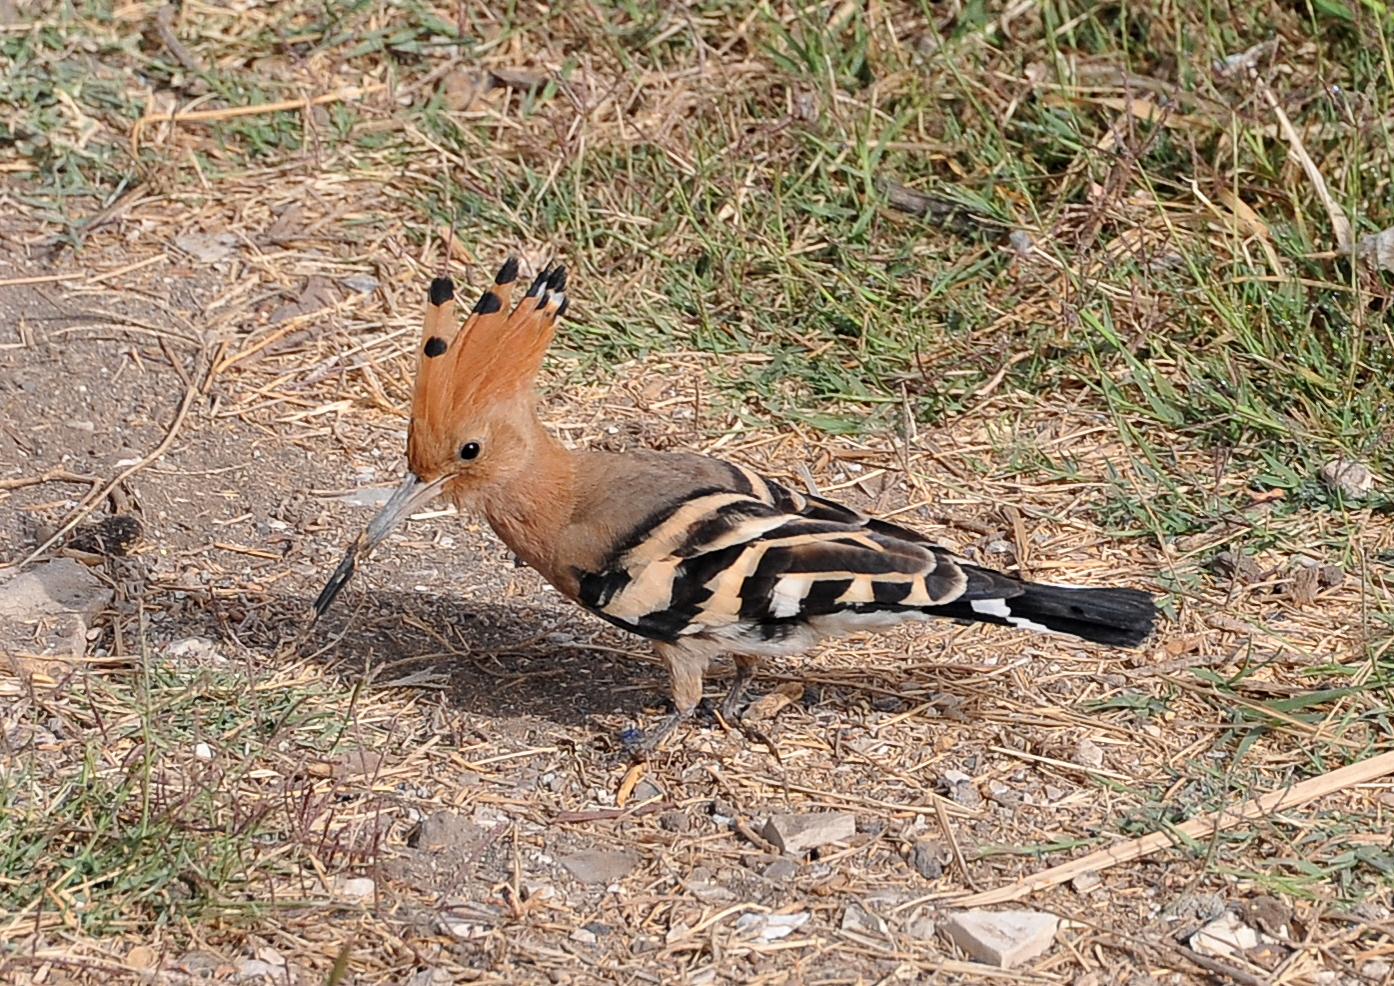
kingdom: Animalia
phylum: Chordata
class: Aves
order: Bucerotiformes
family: Upupidae
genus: Upupa
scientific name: Upupa epops
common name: Eurasian hoopoe
